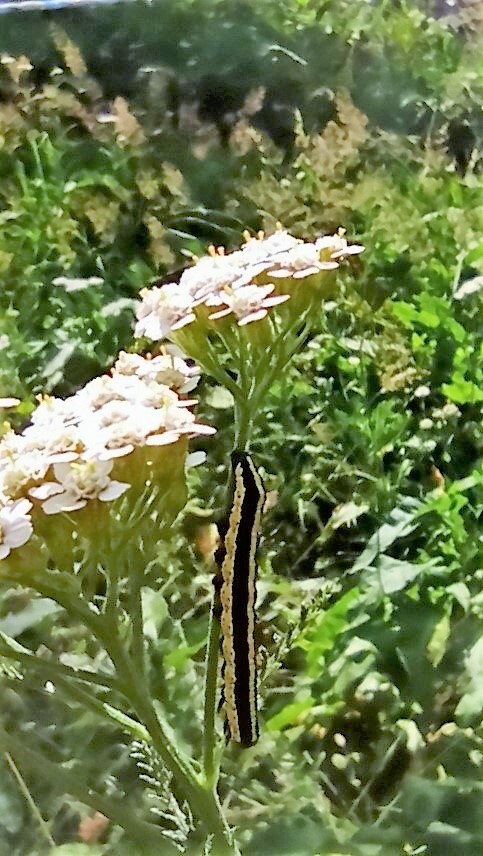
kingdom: Animalia
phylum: Arthropoda
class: Insecta
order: Lepidoptera
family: Noctuidae
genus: Cucullia
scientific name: Cucullia lucifuga
